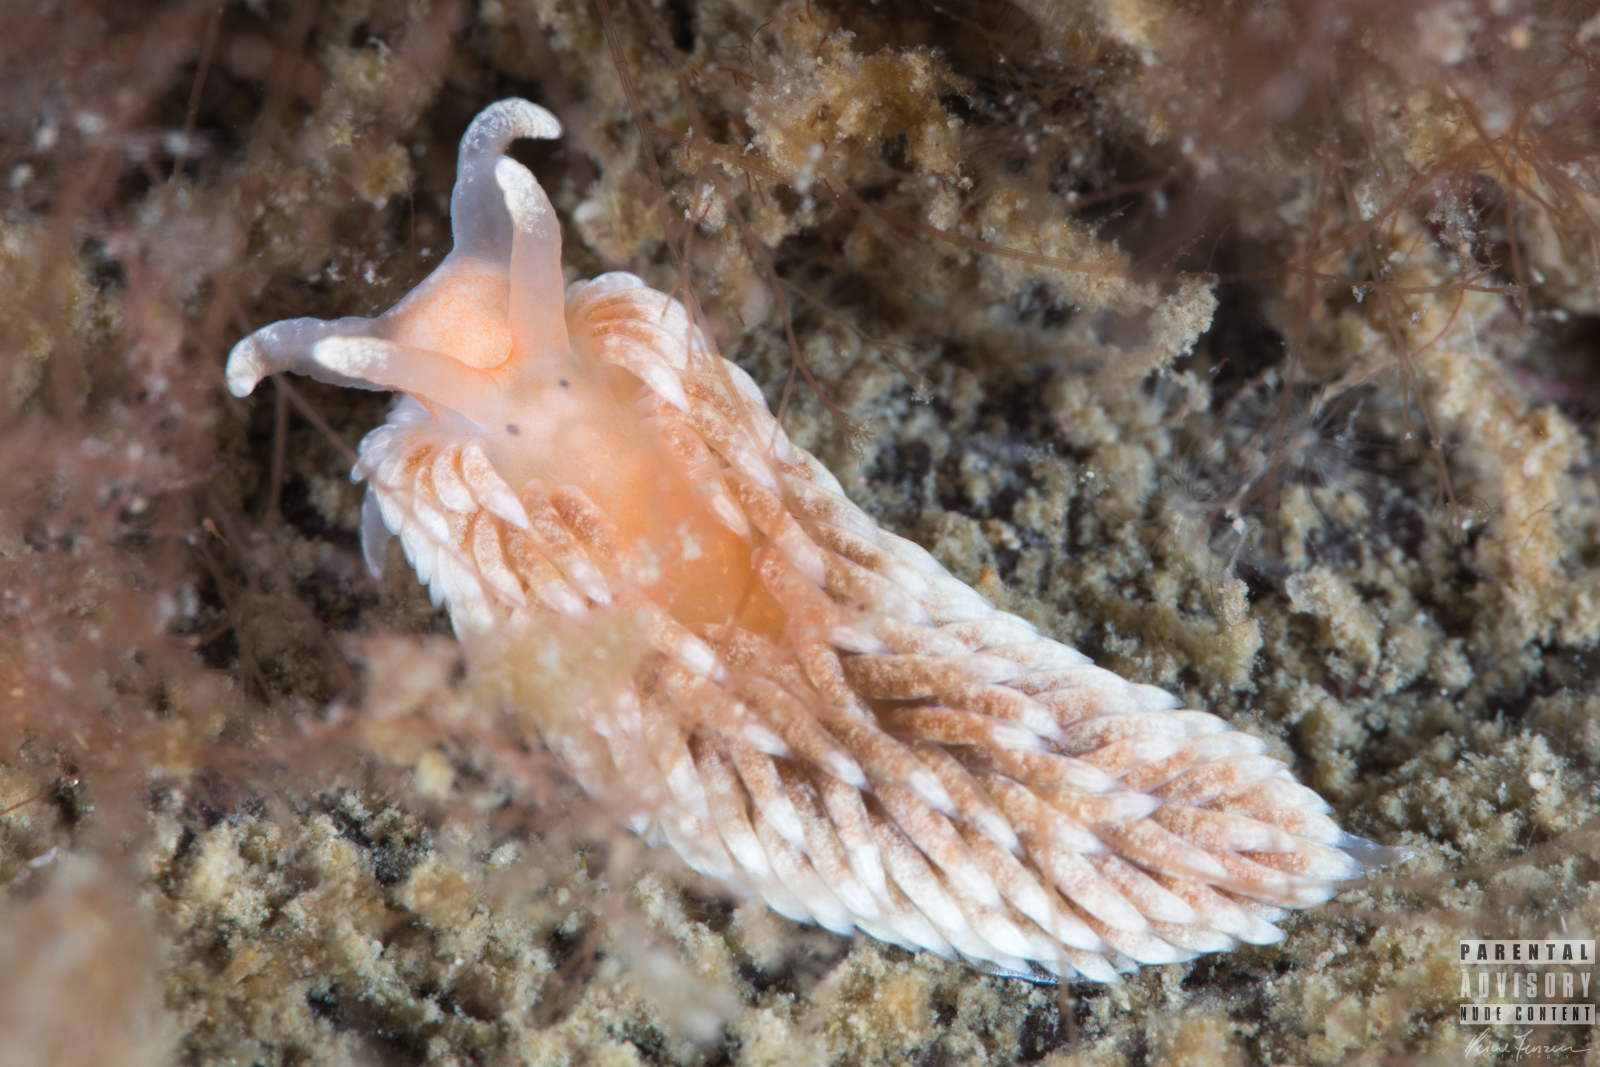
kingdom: Animalia
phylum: Mollusca
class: Gastropoda
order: Nudibranchia
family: Aeolidiidae
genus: Aeolidiella
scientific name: Aeolidiella glauca
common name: Orange-brown aeolid
